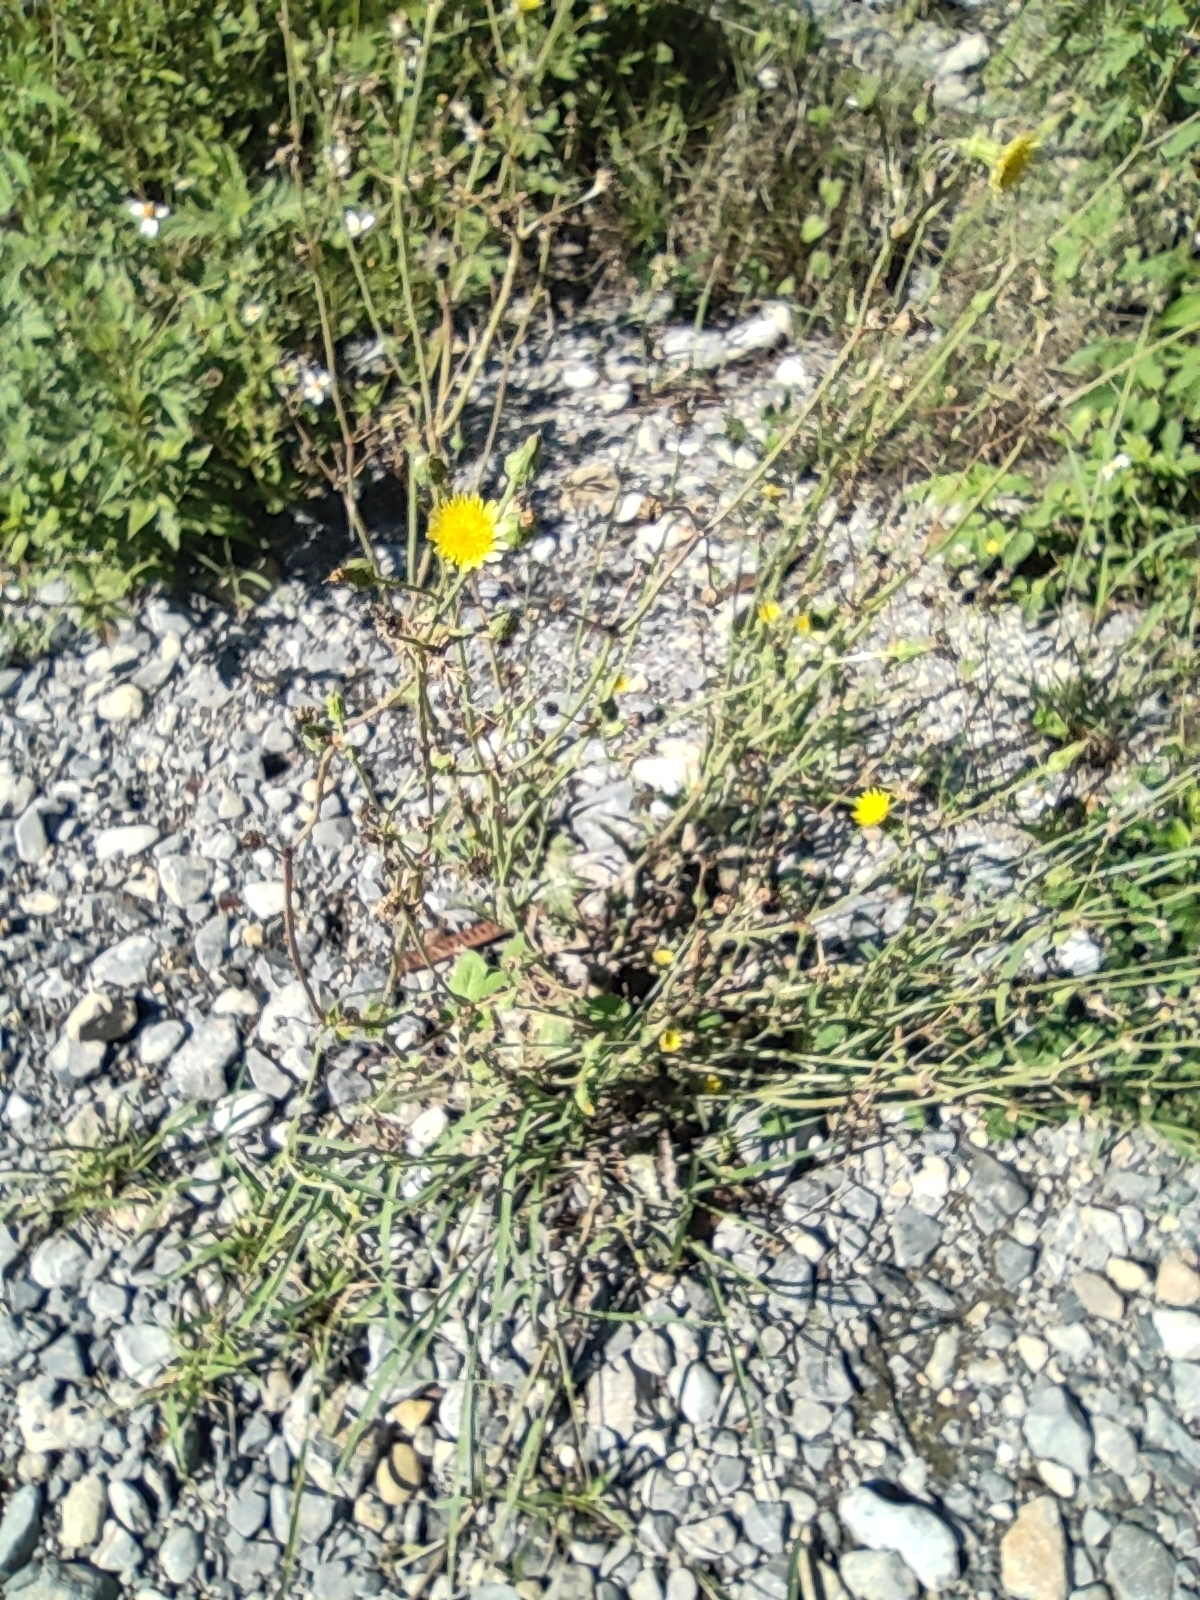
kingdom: Plantae
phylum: Tracheophyta
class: Magnoliopsida
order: Asterales
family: Asteraceae
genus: Sonchus
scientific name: Sonchus oleraceus
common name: Common sowthistle
